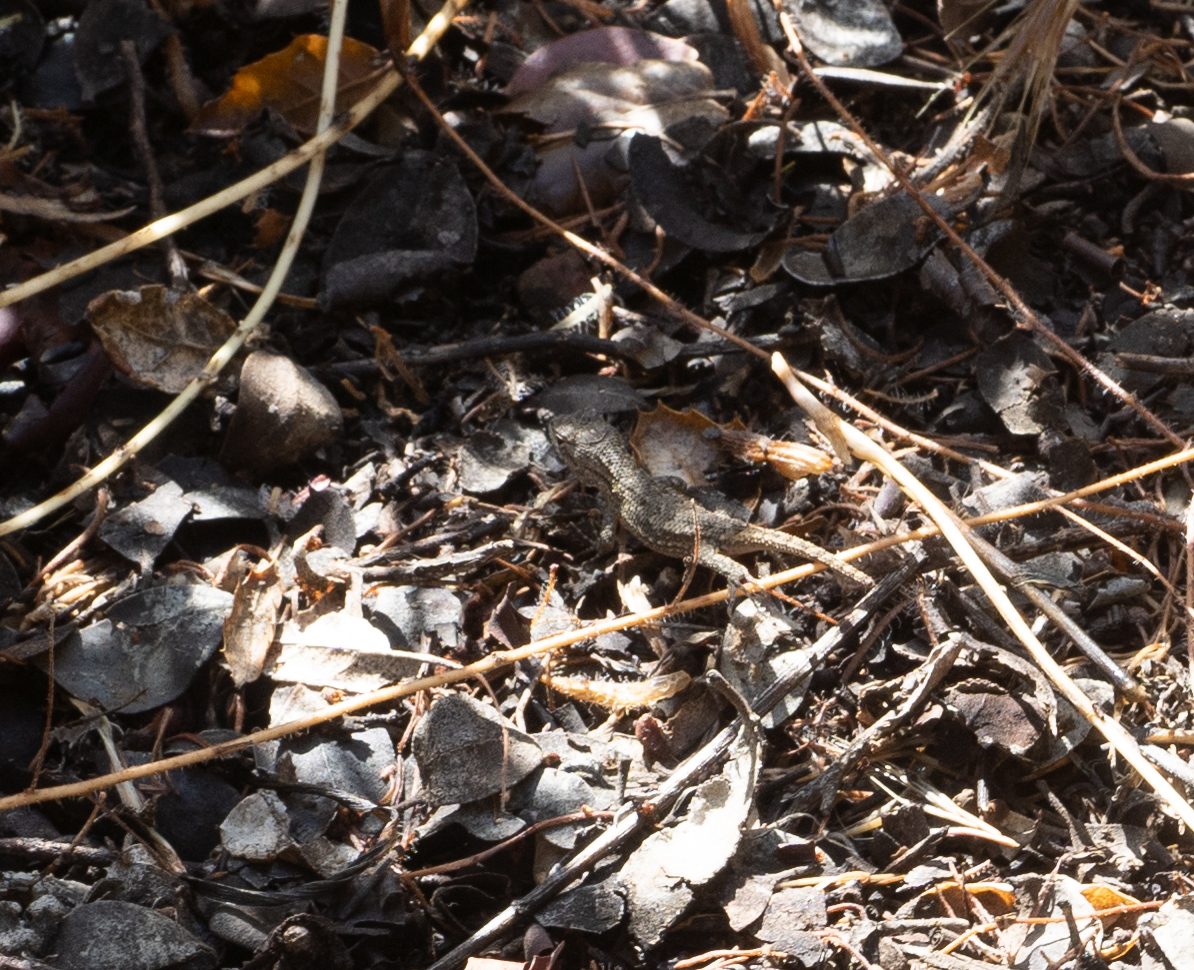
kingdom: Animalia
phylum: Chordata
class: Squamata
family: Phrynosomatidae
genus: Sceloporus
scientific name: Sceloporus occidentalis
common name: Western fence lizard
